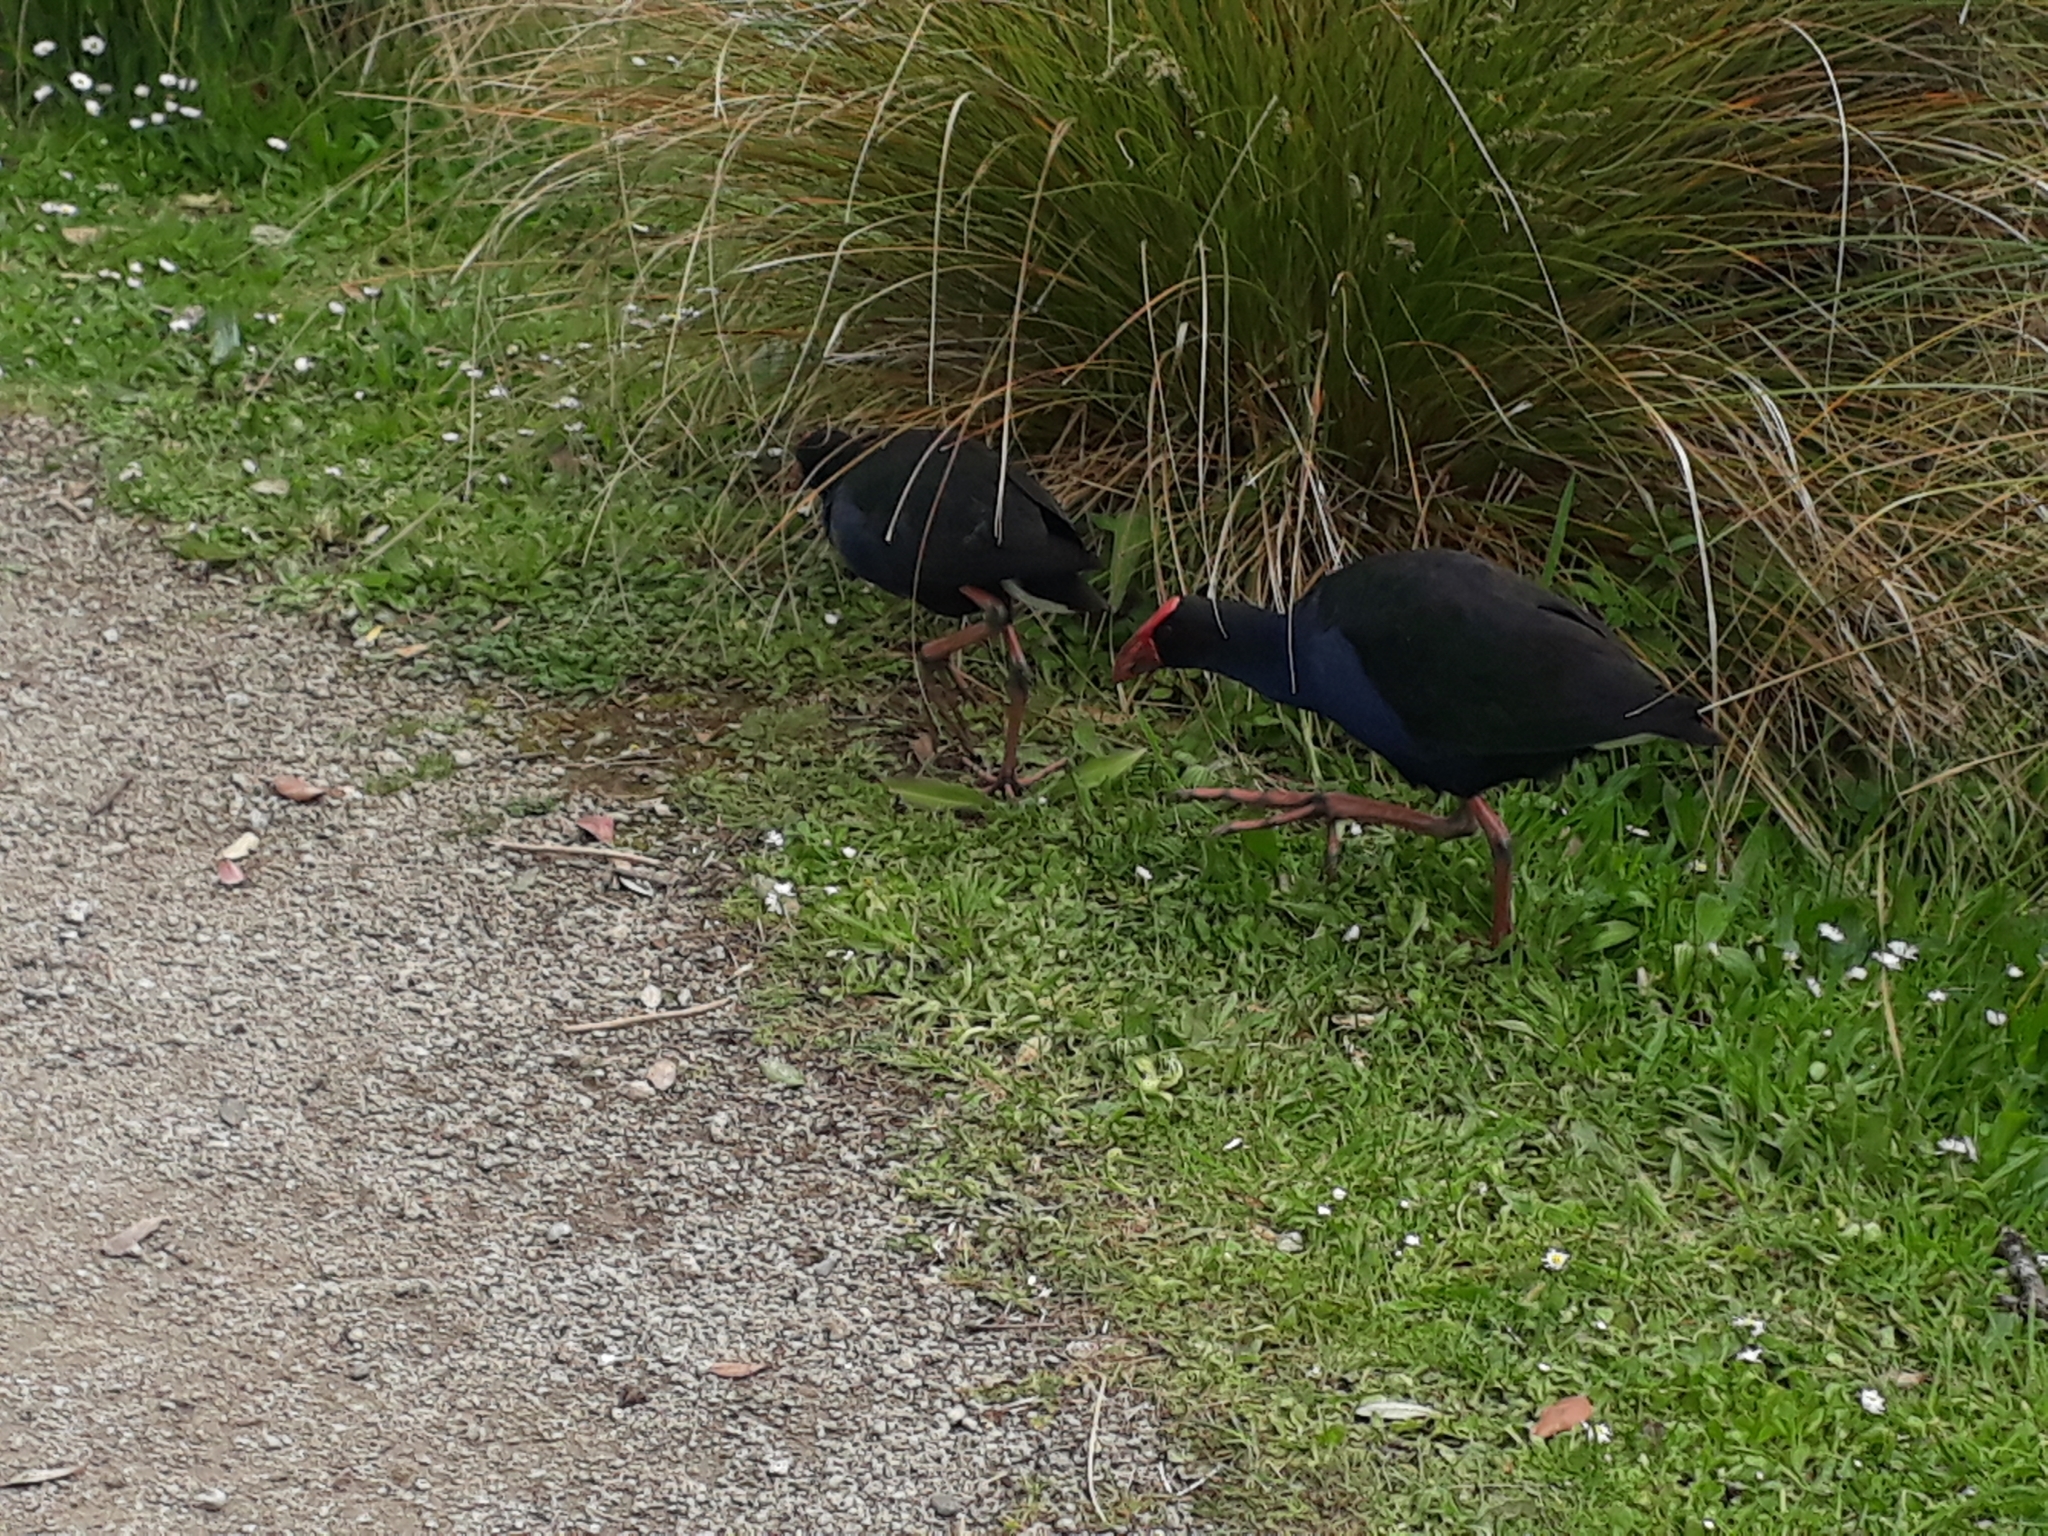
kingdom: Animalia
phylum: Chordata
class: Aves
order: Gruiformes
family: Rallidae
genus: Porphyrio
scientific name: Porphyrio melanotus
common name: Australasian swamphen
